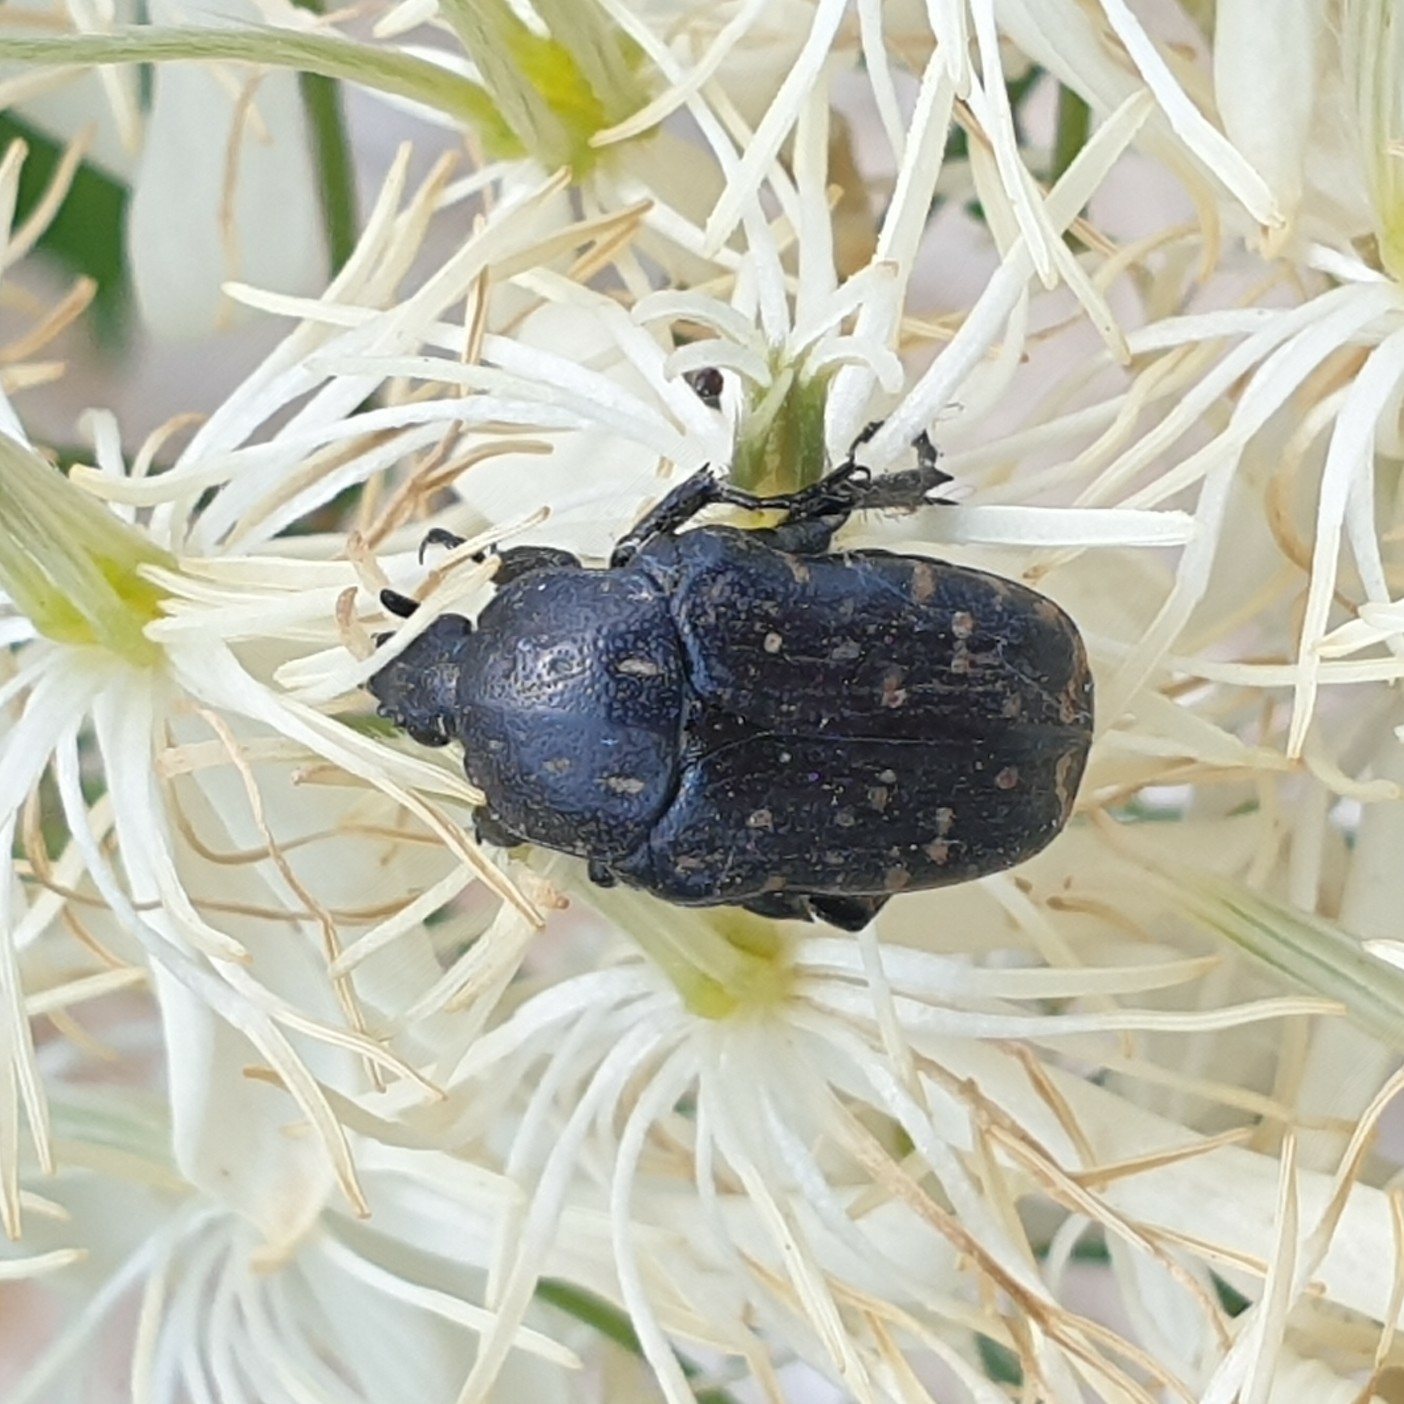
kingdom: Animalia
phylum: Arthropoda
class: Insecta
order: Coleoptera
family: Scarabaeidae
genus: Oxythyrea
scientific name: Oxythyrea funesta
